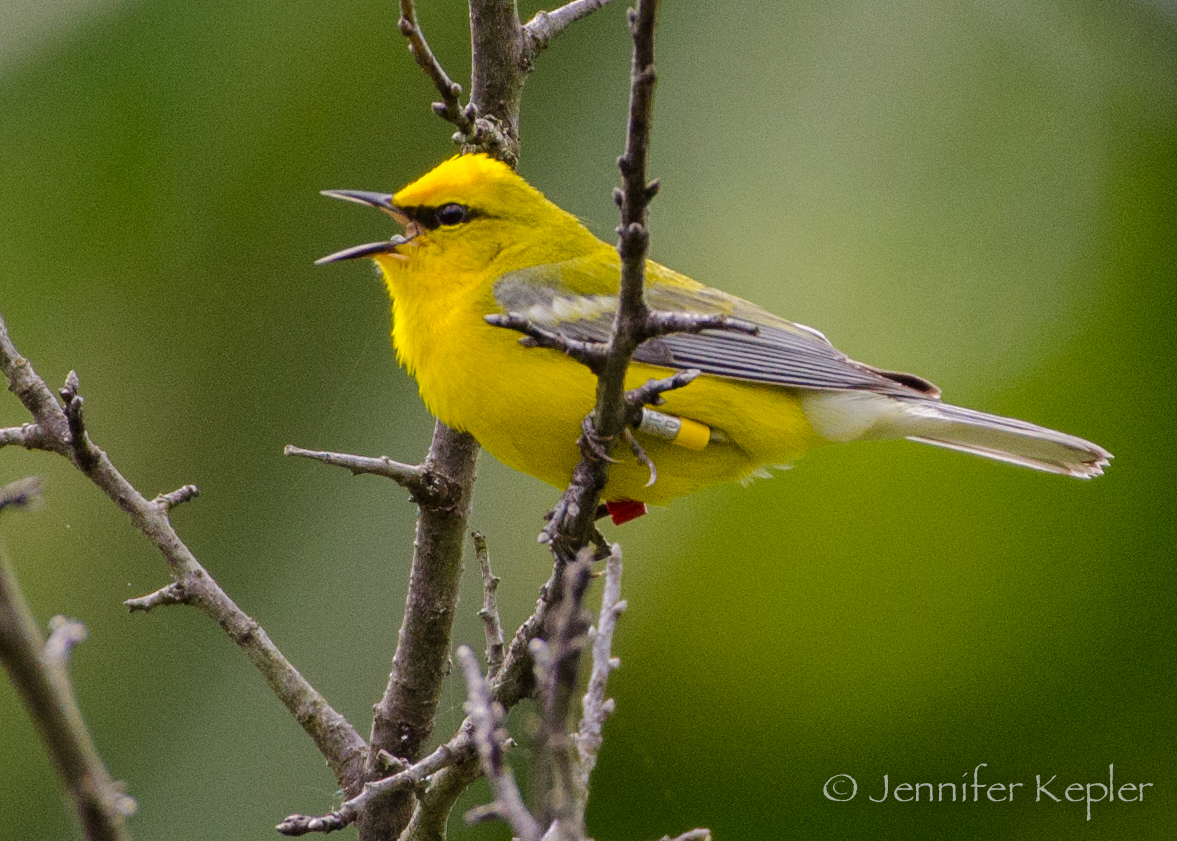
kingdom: Animalia
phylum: Chordata
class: Aves
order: Passeriformes
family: Parulidae
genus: Vermivora
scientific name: Vermivora cyanoptera
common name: Blue-winged warbler
